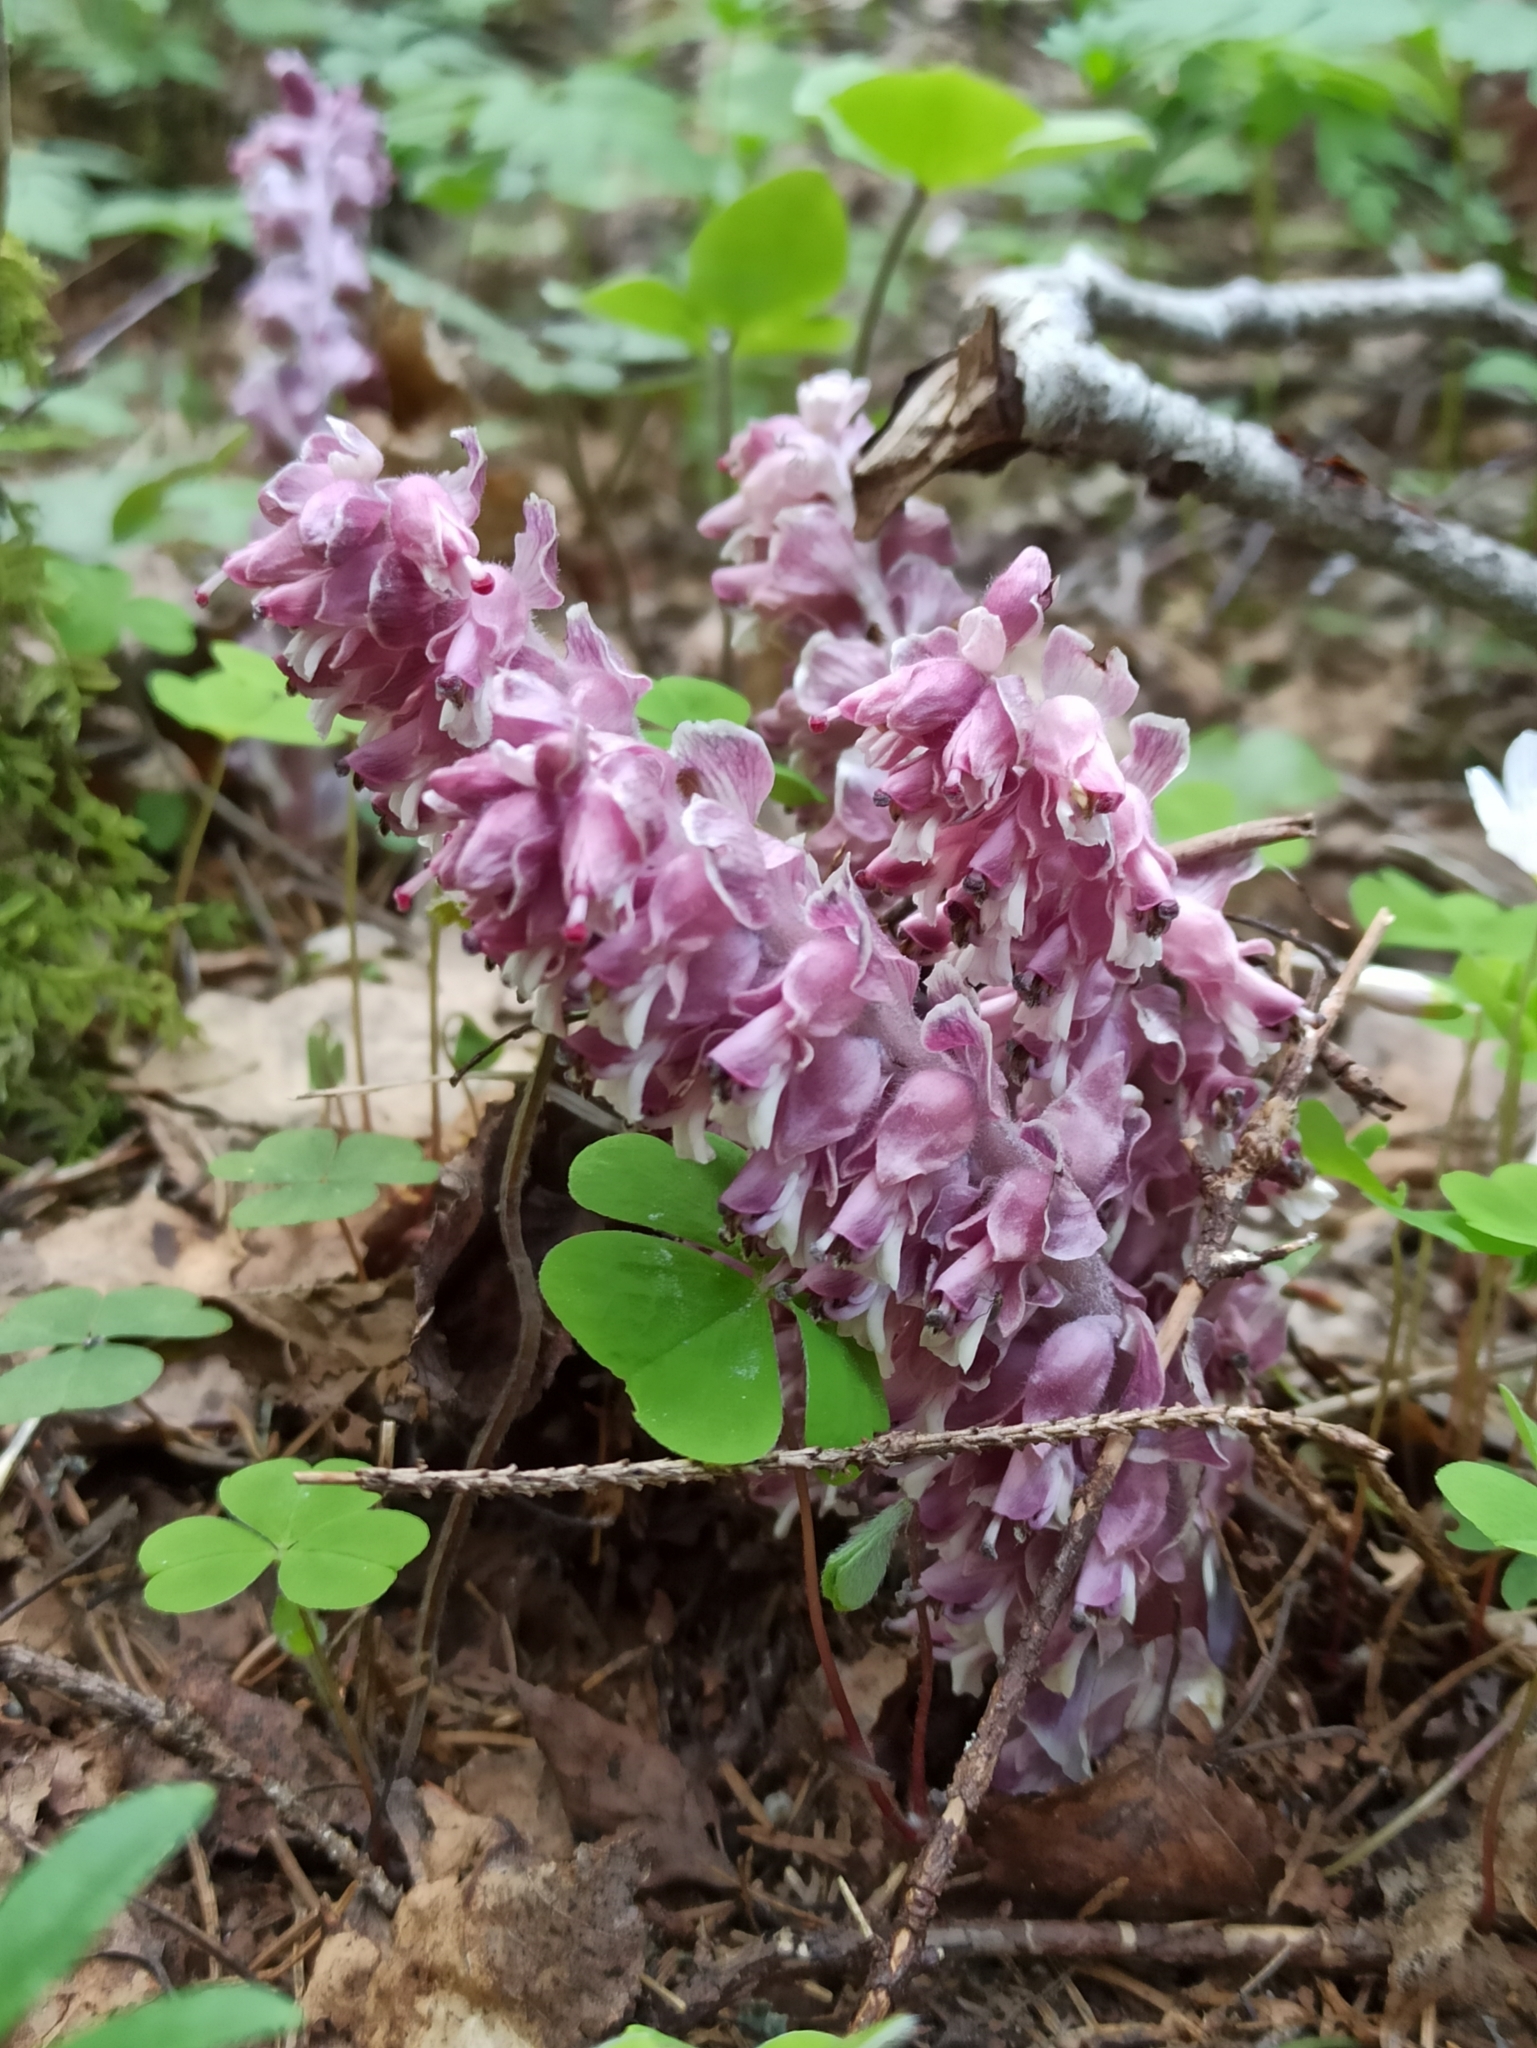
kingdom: Plantae
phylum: Tracheophyta
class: Magnoliopsida
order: Lamiales
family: Orobanchaceae
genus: Lathraea
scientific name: Lathraea squamaria
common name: Toothwort
